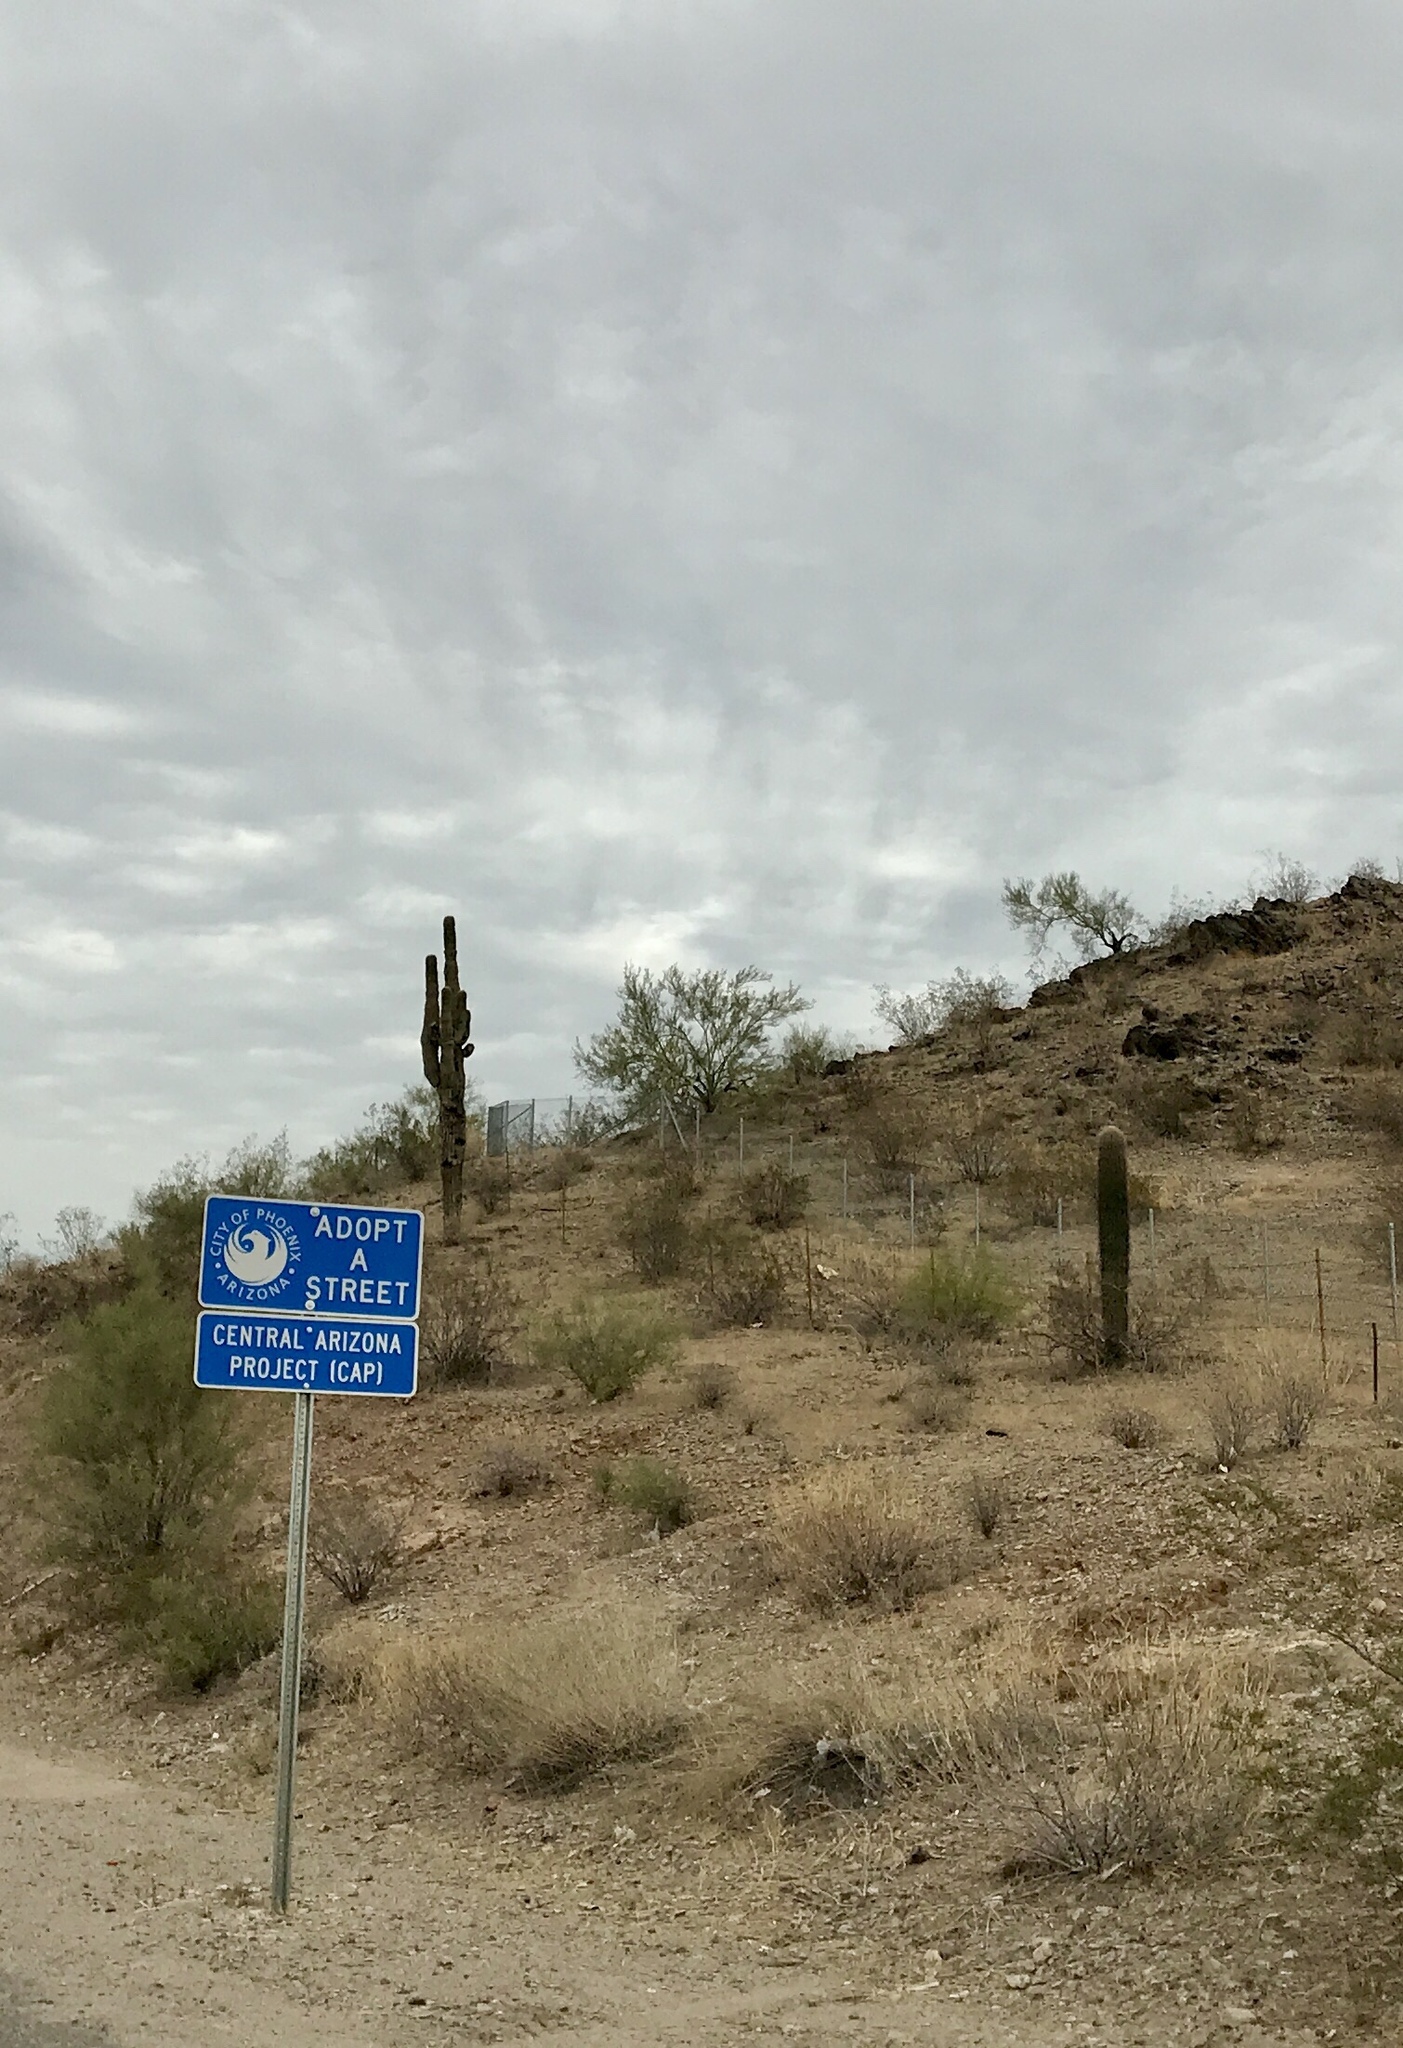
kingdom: Plantae
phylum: Tracheophyta
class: Magnoliopsida
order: Caryophyllales
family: Cactaceae
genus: Carnegiea
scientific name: Carnegiea gigantea
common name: Saguaro
